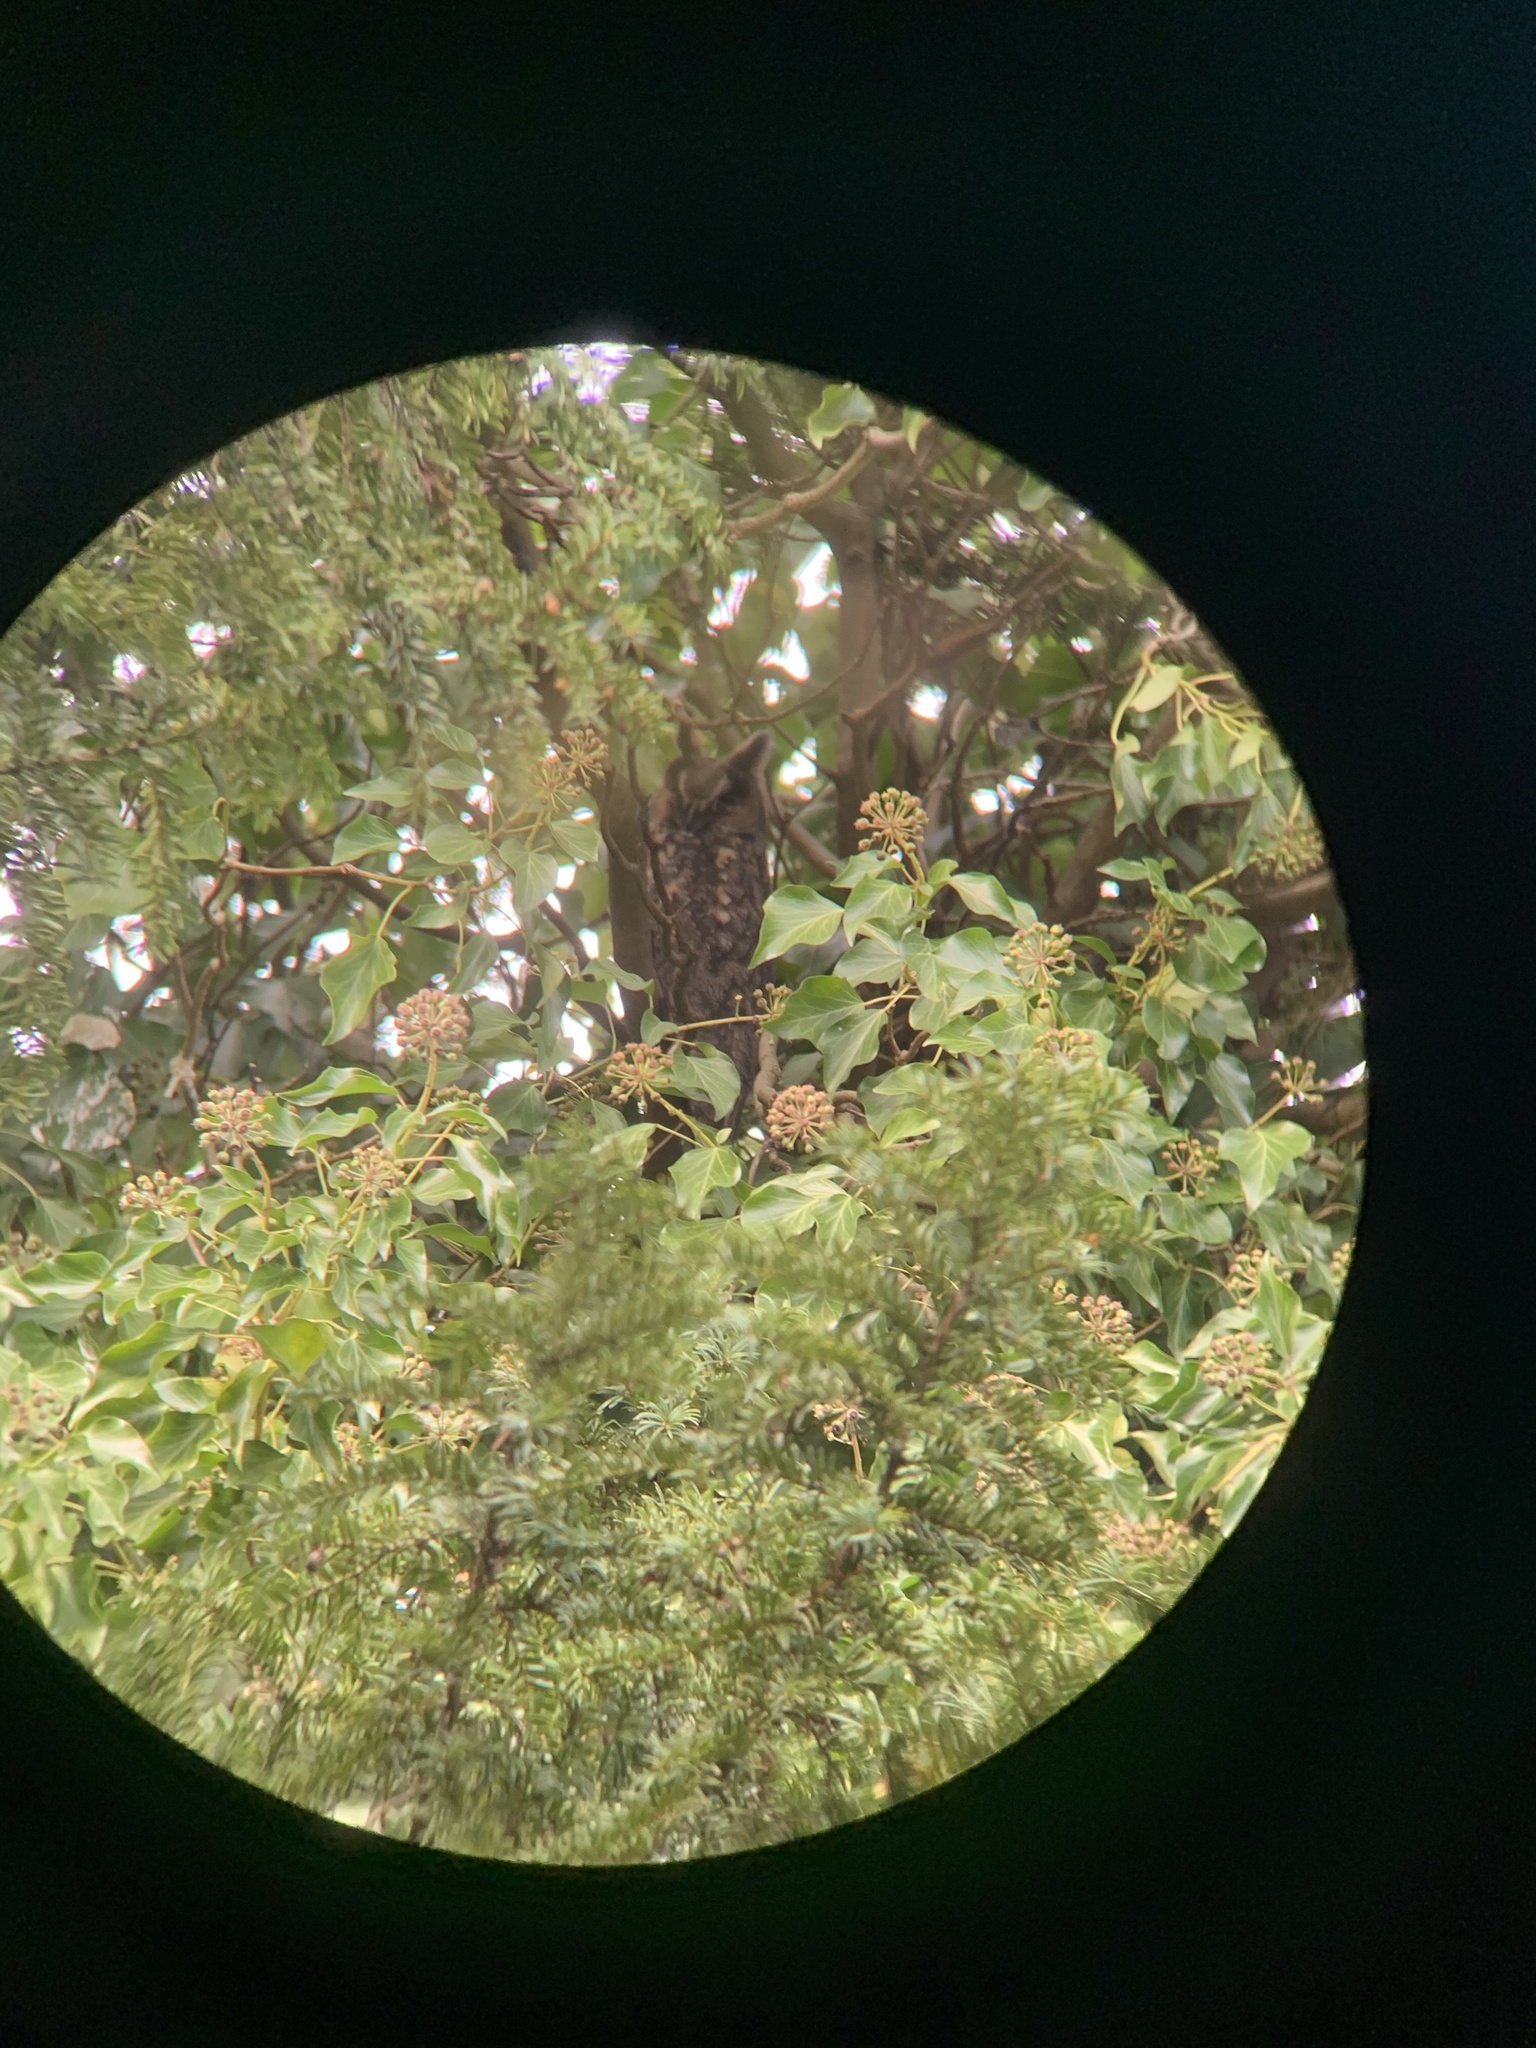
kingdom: Animalia
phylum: Chordata
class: Aves
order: Strigiformes
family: Strigidae
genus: Asio
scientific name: Asio otus
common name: Long-eared owl
